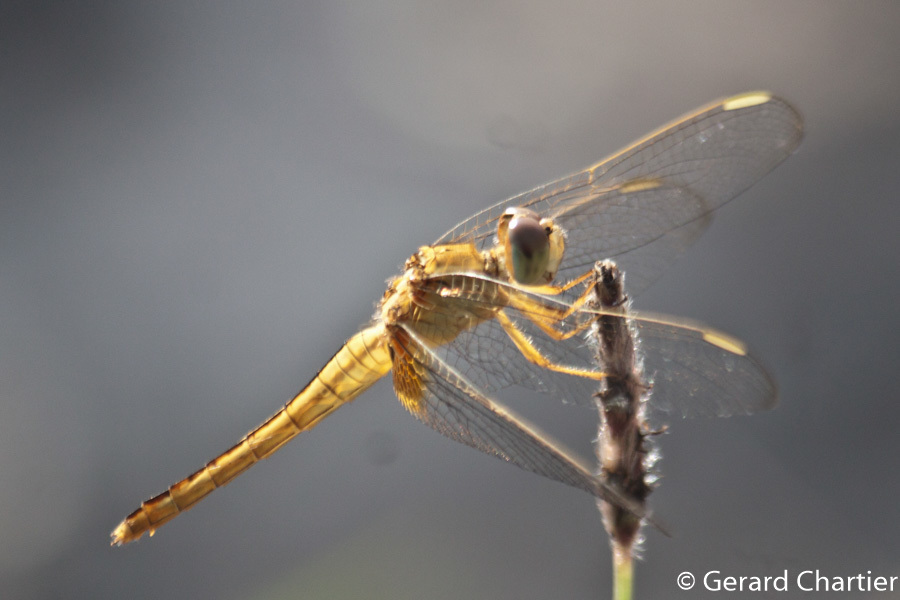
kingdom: Animalia
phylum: Arthropoda
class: Insecta
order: Odonata
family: Libellulidae
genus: Crocothemis
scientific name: Crocothemis servilia
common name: Scarlet skimmer
